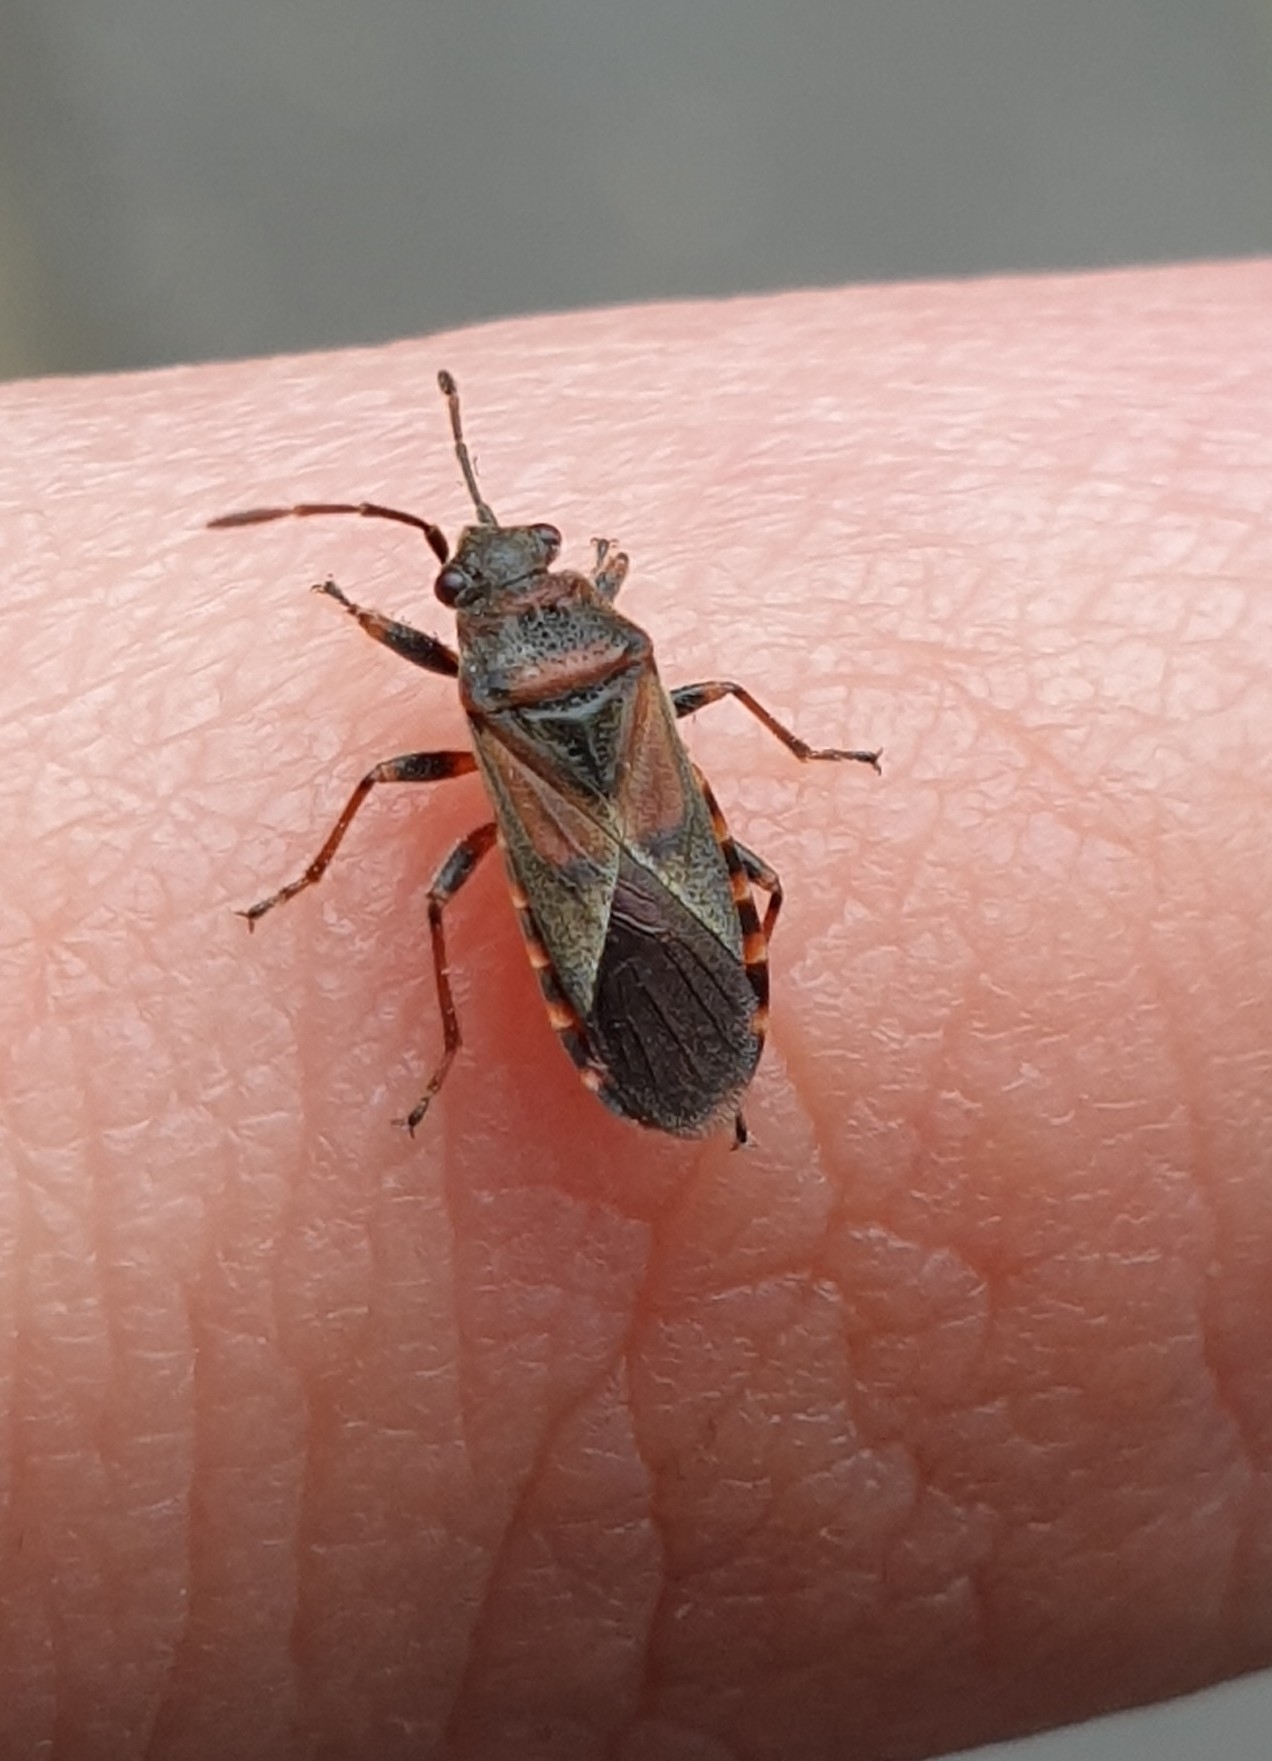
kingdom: Animalia
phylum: Arthropoda
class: Insecta
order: Hemiptera
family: Lygaeidae
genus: Arocatus
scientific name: Arocatus melanocephalus
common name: Lygaeid bug
